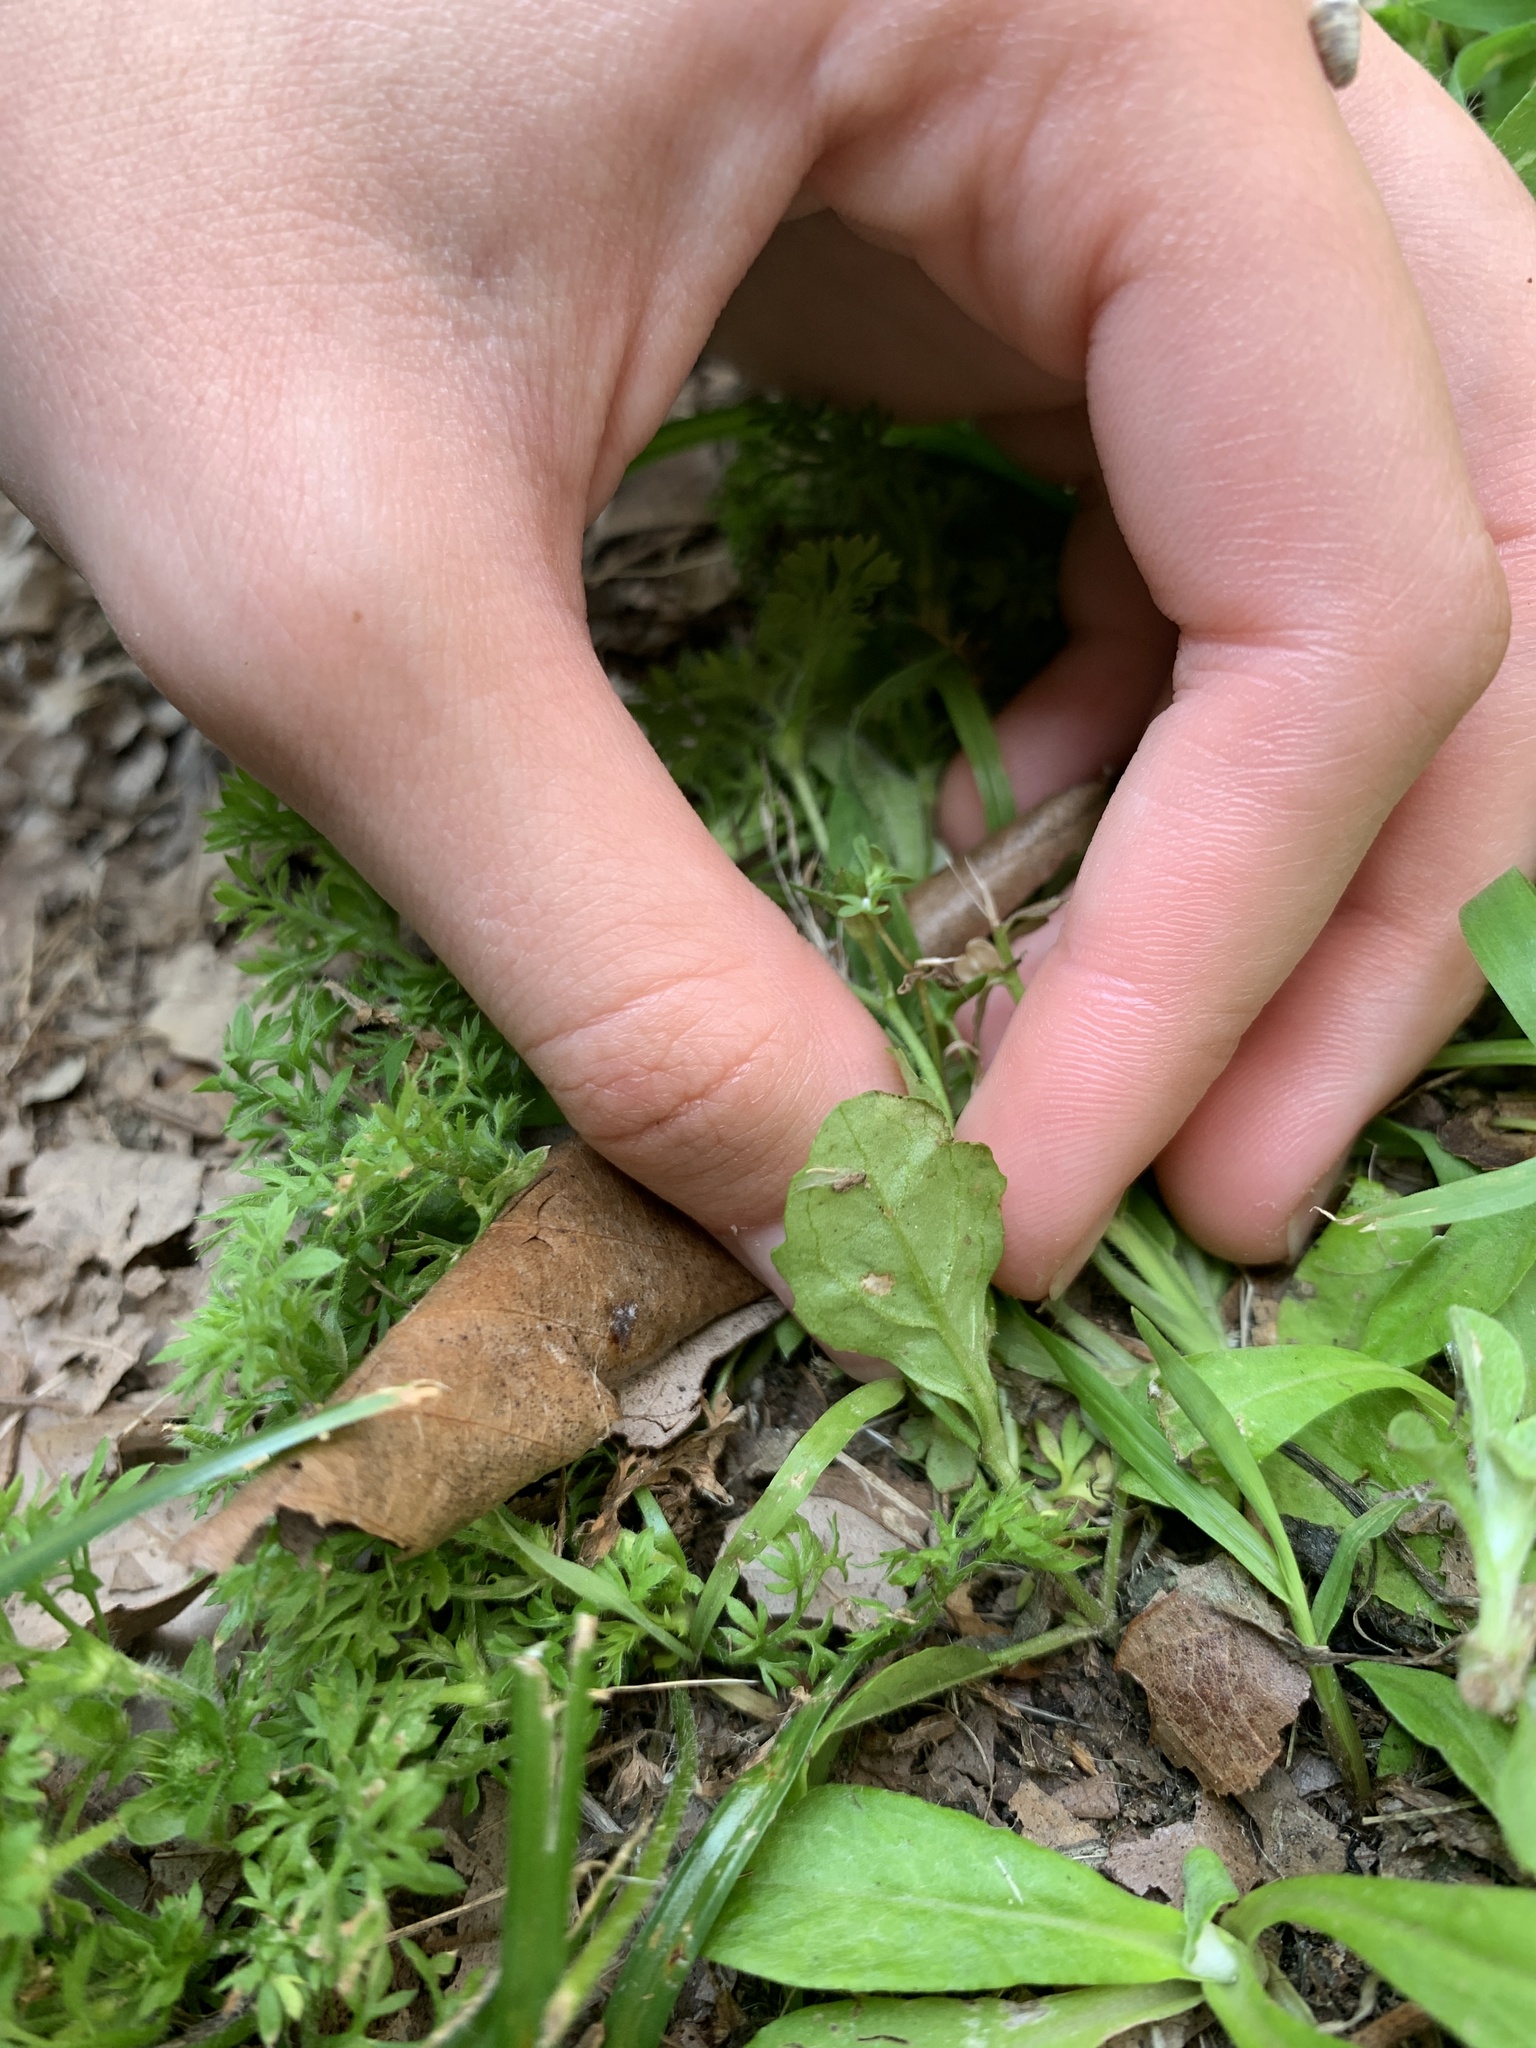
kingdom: Plantae
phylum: Tracheophyta
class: Magnoliopsida
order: Lamiales
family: Mazaceae
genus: Mazus
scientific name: Mazus pumilus
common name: Japanese mazus
